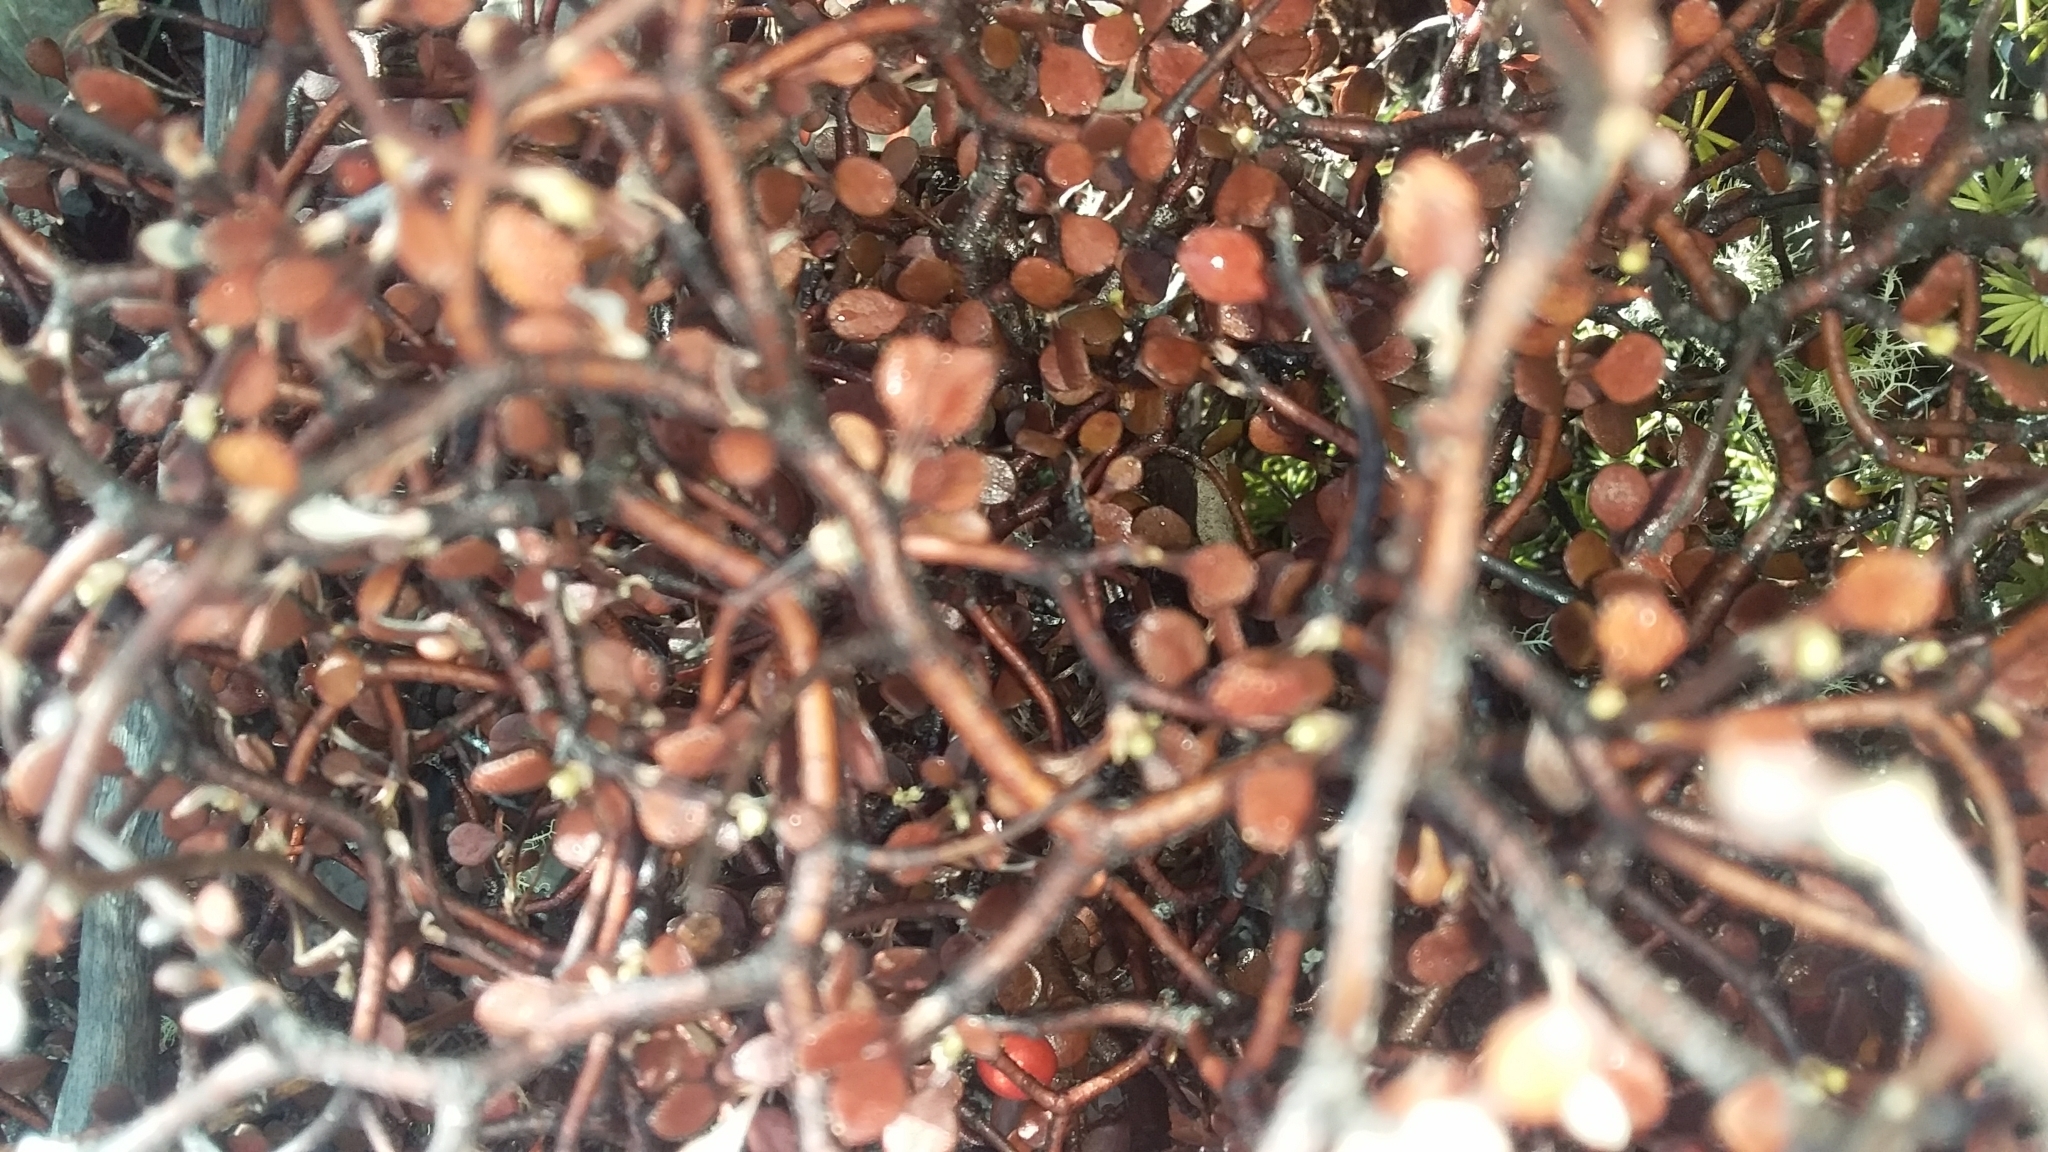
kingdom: Plantae
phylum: Tracheophyta
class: Magnoliopsida
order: Asterales
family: Argophyllaceae
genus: Corokia
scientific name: Corokia cotoneaster
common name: Wire nettingbush
